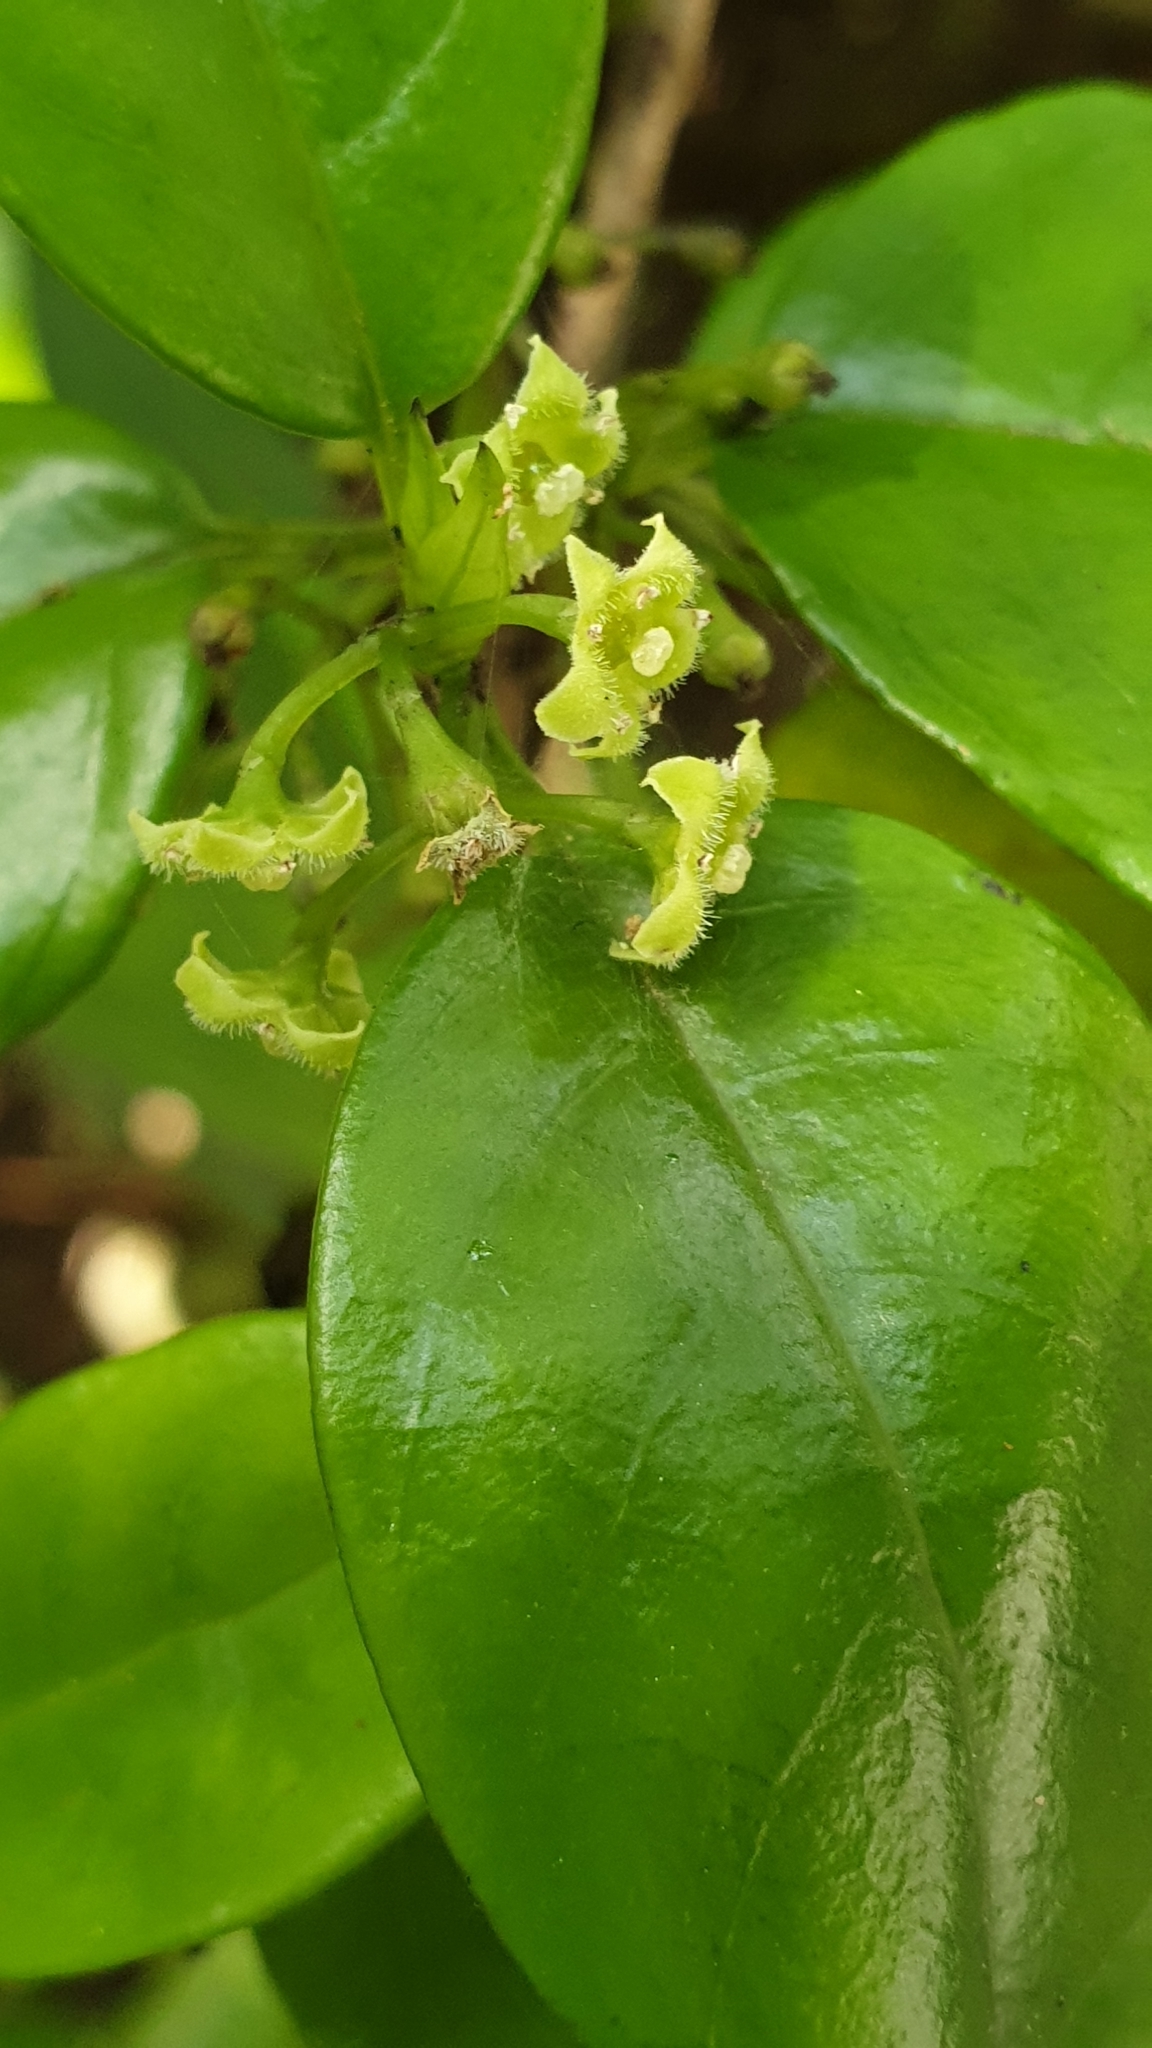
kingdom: Plantae
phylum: Tracheophyta
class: Magnoliopsida
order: Gentianales
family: Loganiaceae
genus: Geniostoma
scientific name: Geniostoma ligustrifolium
